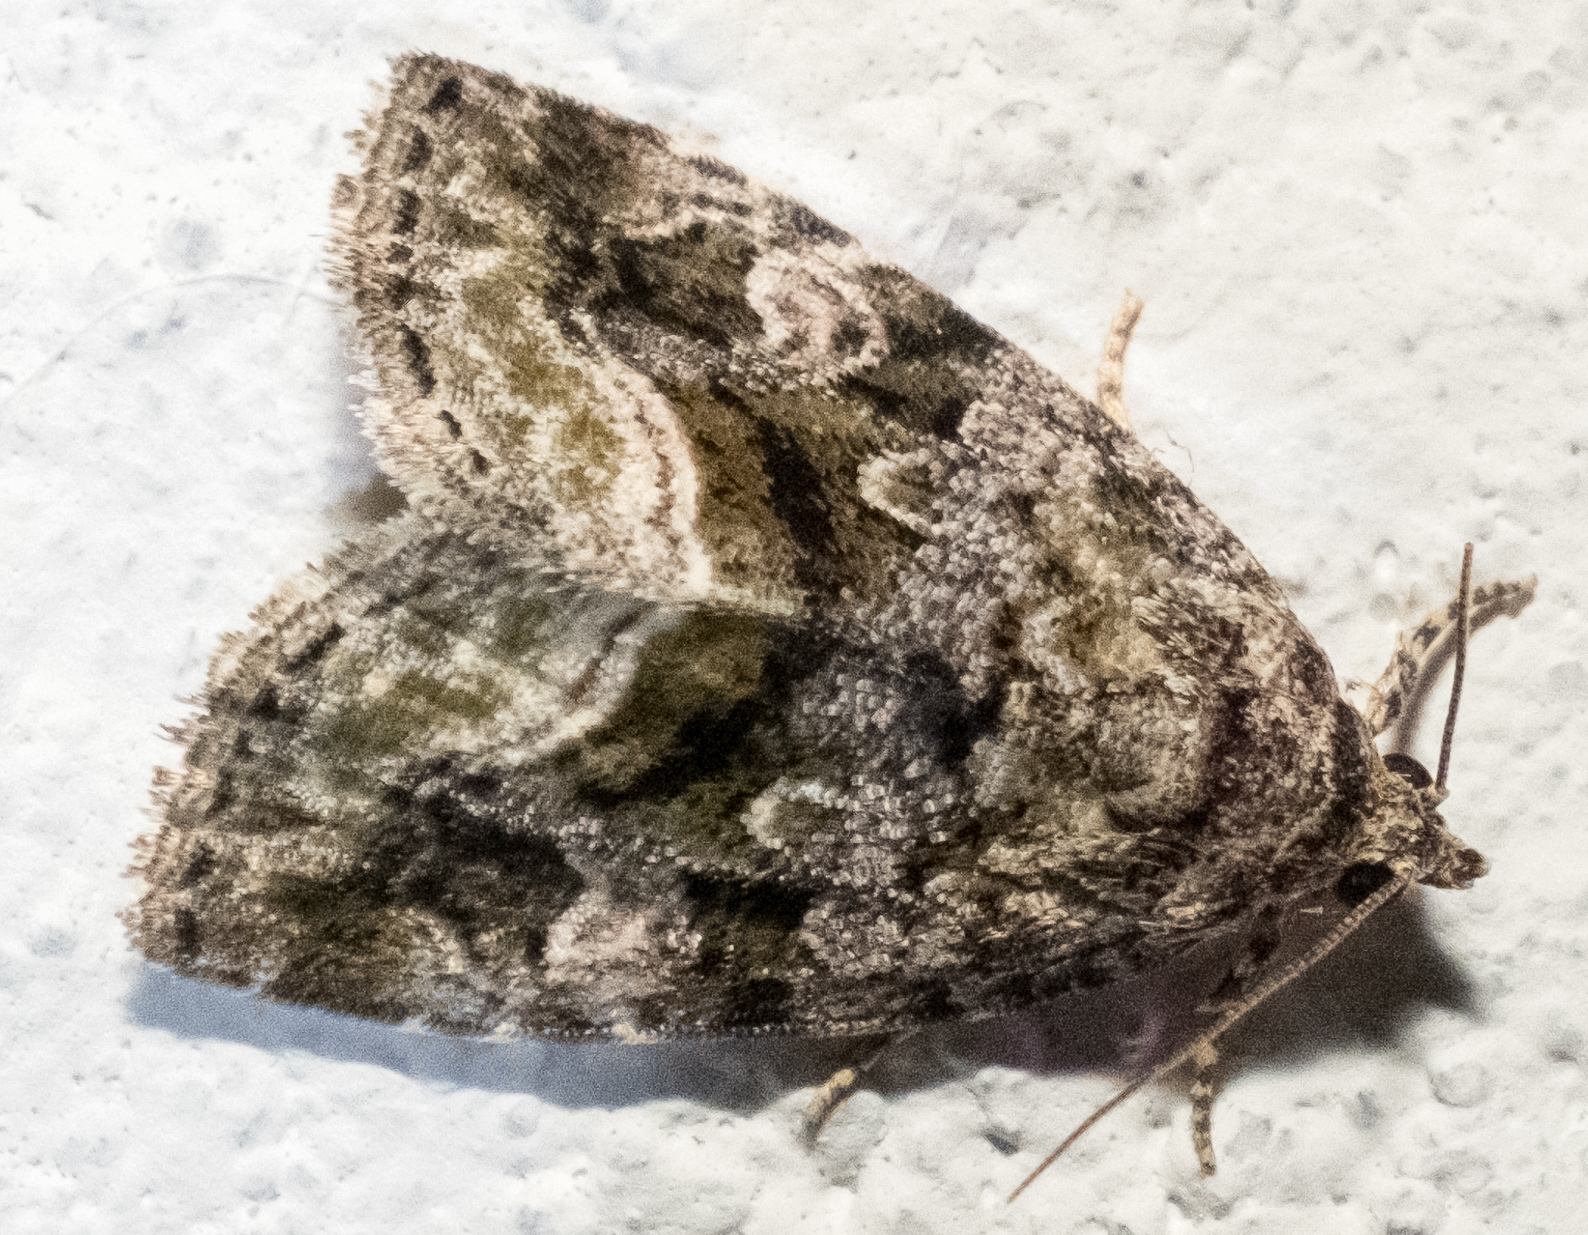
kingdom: Animalia
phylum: Arthropoda
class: Insecta
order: Lepidoptera
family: Noctuidae
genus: Protodeltote
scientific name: Protodeltote muscosula
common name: Large mossy glyph
